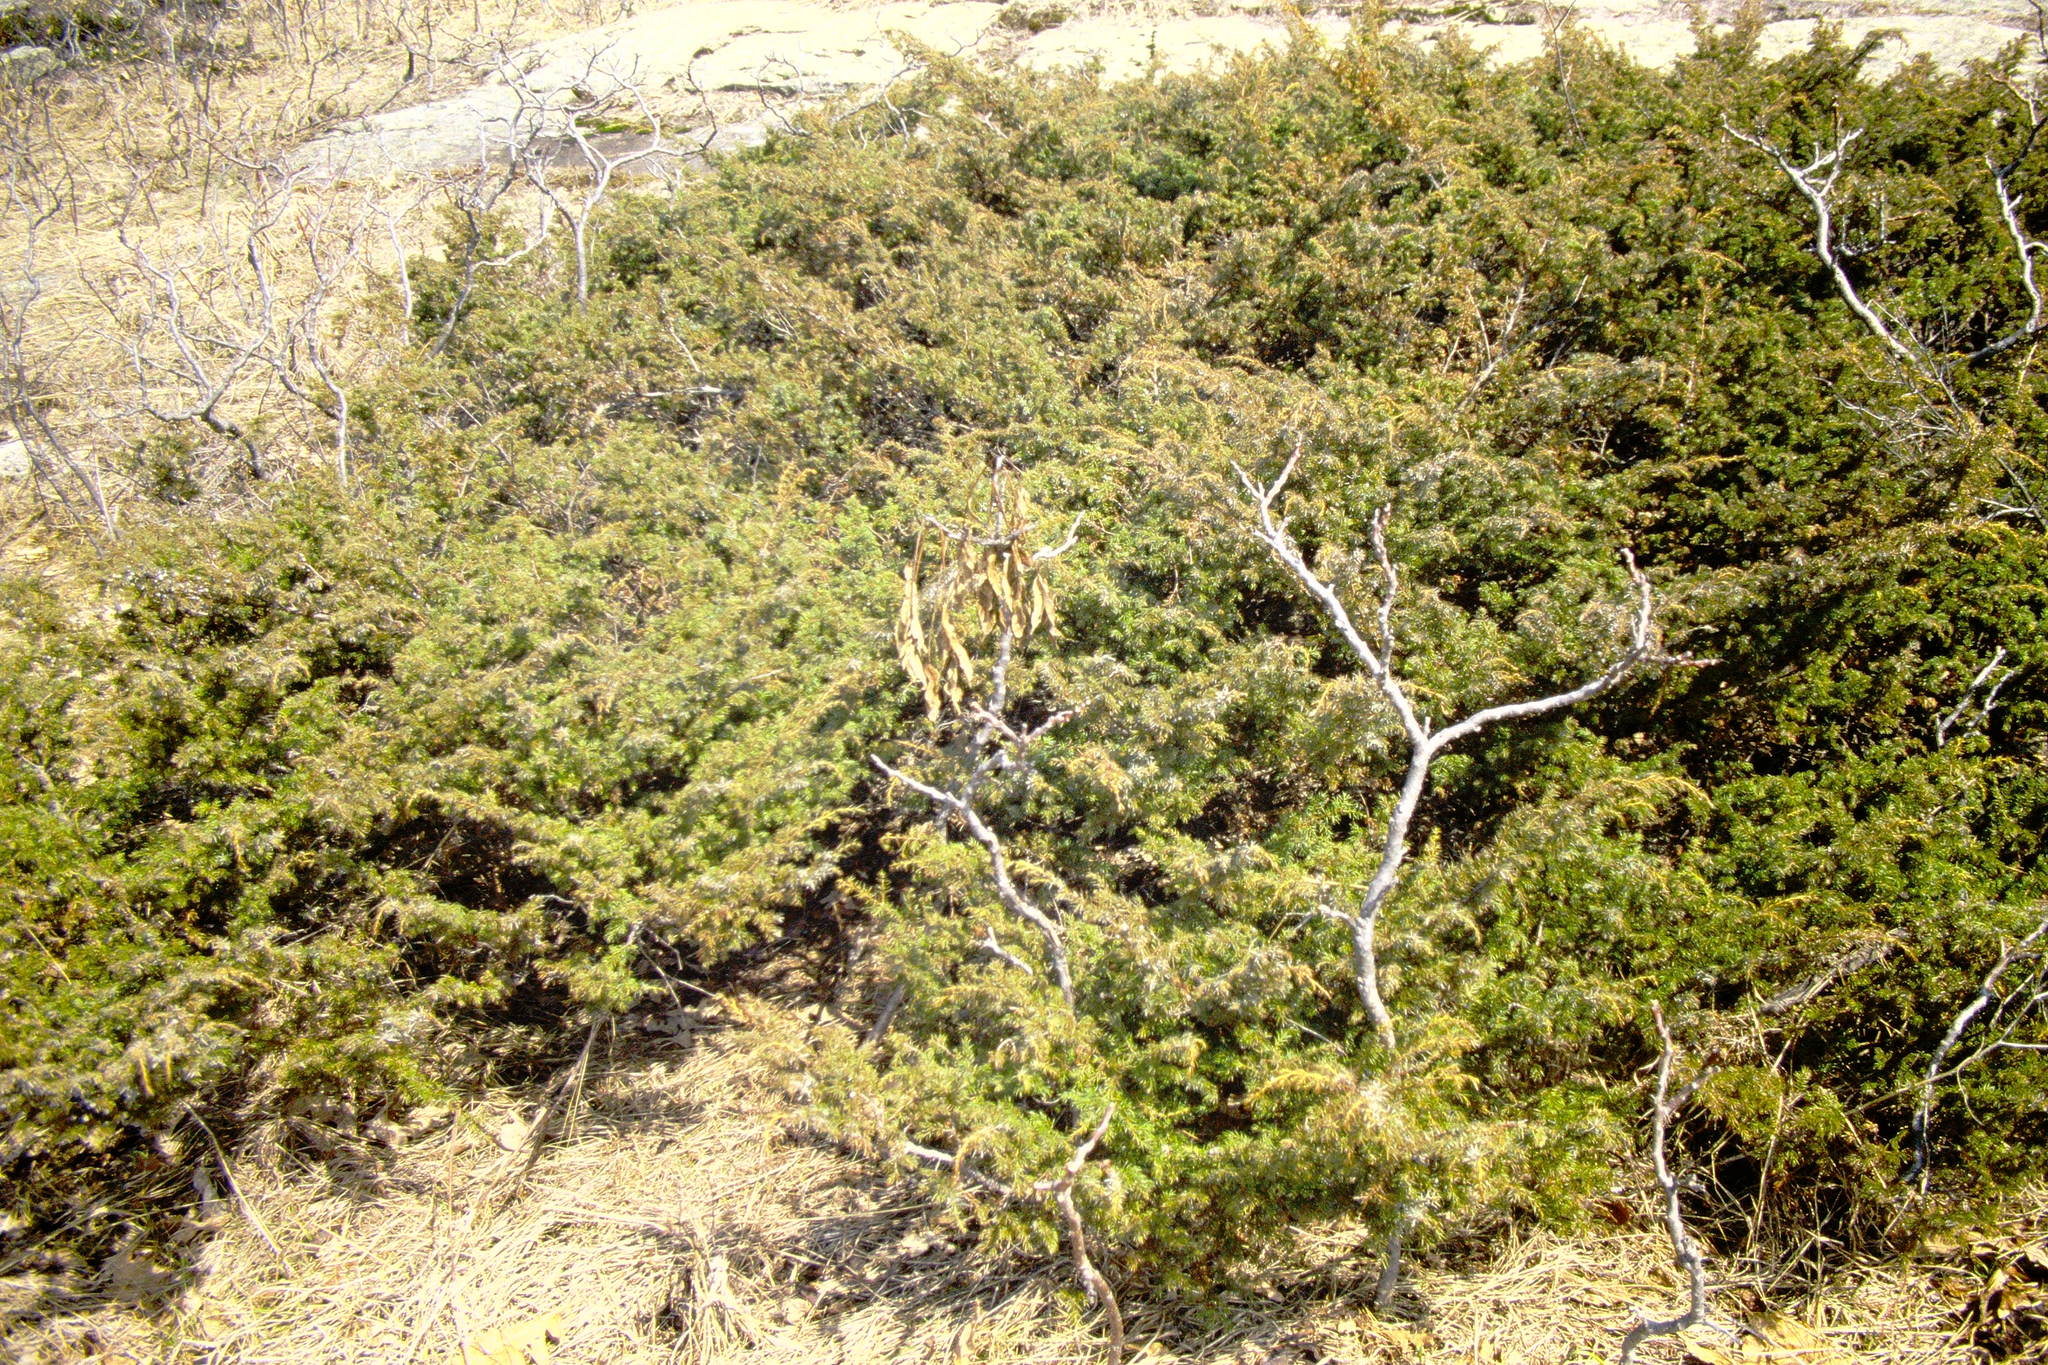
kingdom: Plantae
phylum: Tracheophyta
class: Pinopsida
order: Pinales
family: Cupressaceae
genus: Juniperus
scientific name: Juniperus communis
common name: Common juniper
